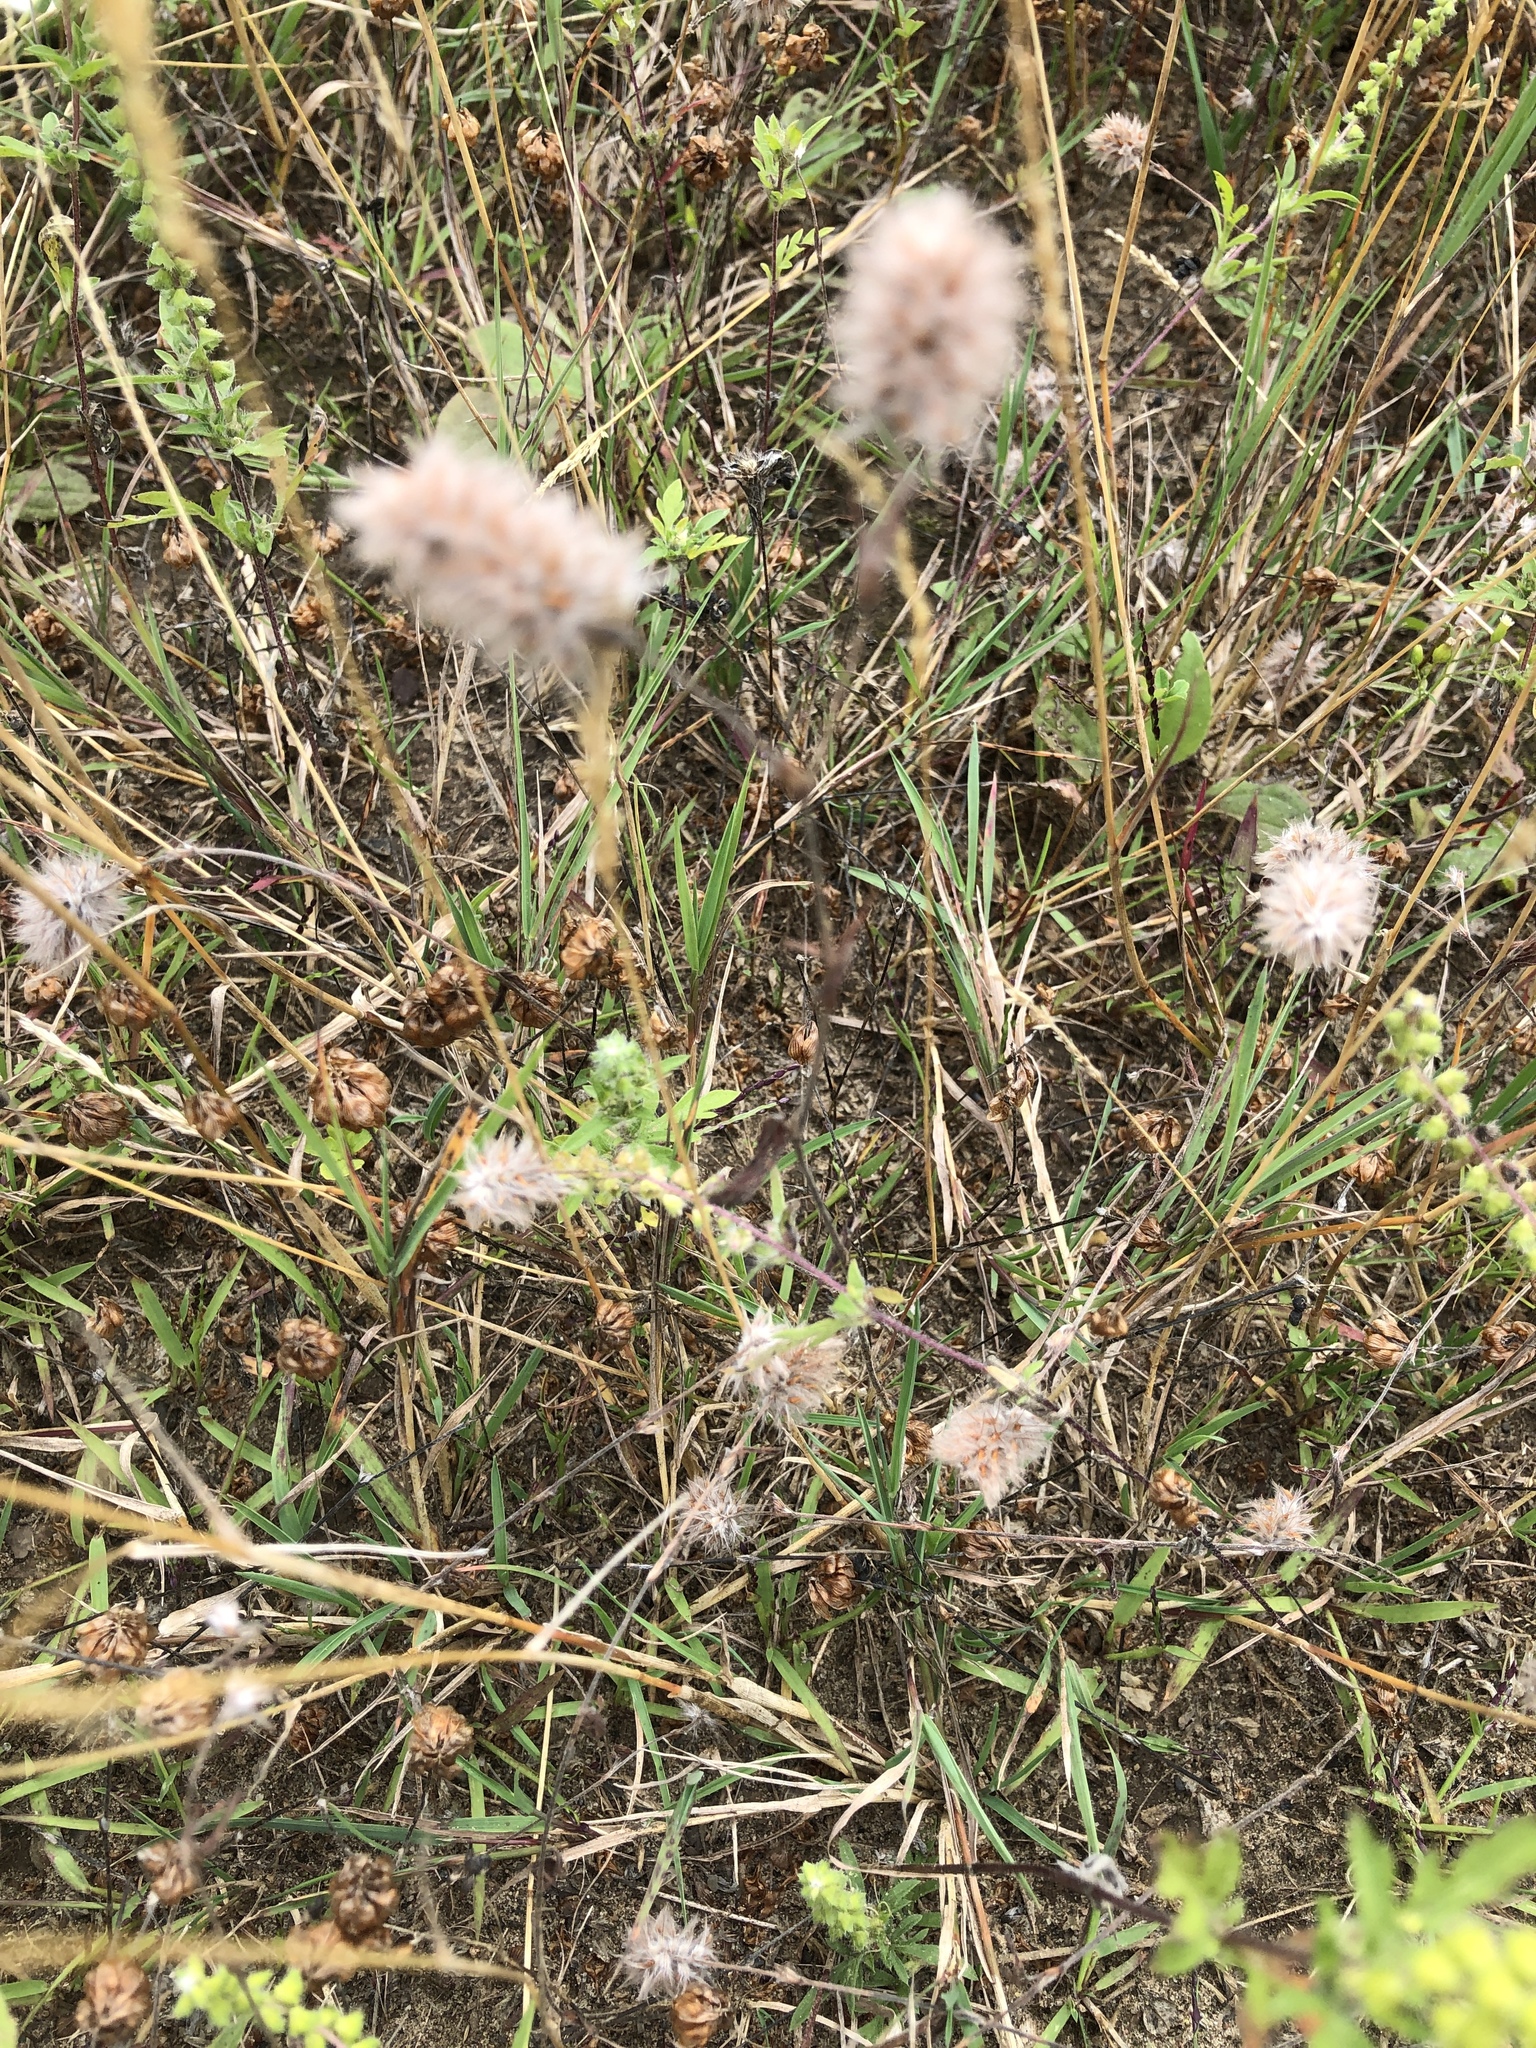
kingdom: Plantae
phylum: Tracheophyta
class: Magnoliopsida
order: Fabales
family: Fabaceae
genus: Trifolium
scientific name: Trifolium arvense
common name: Hare's-foot clover
